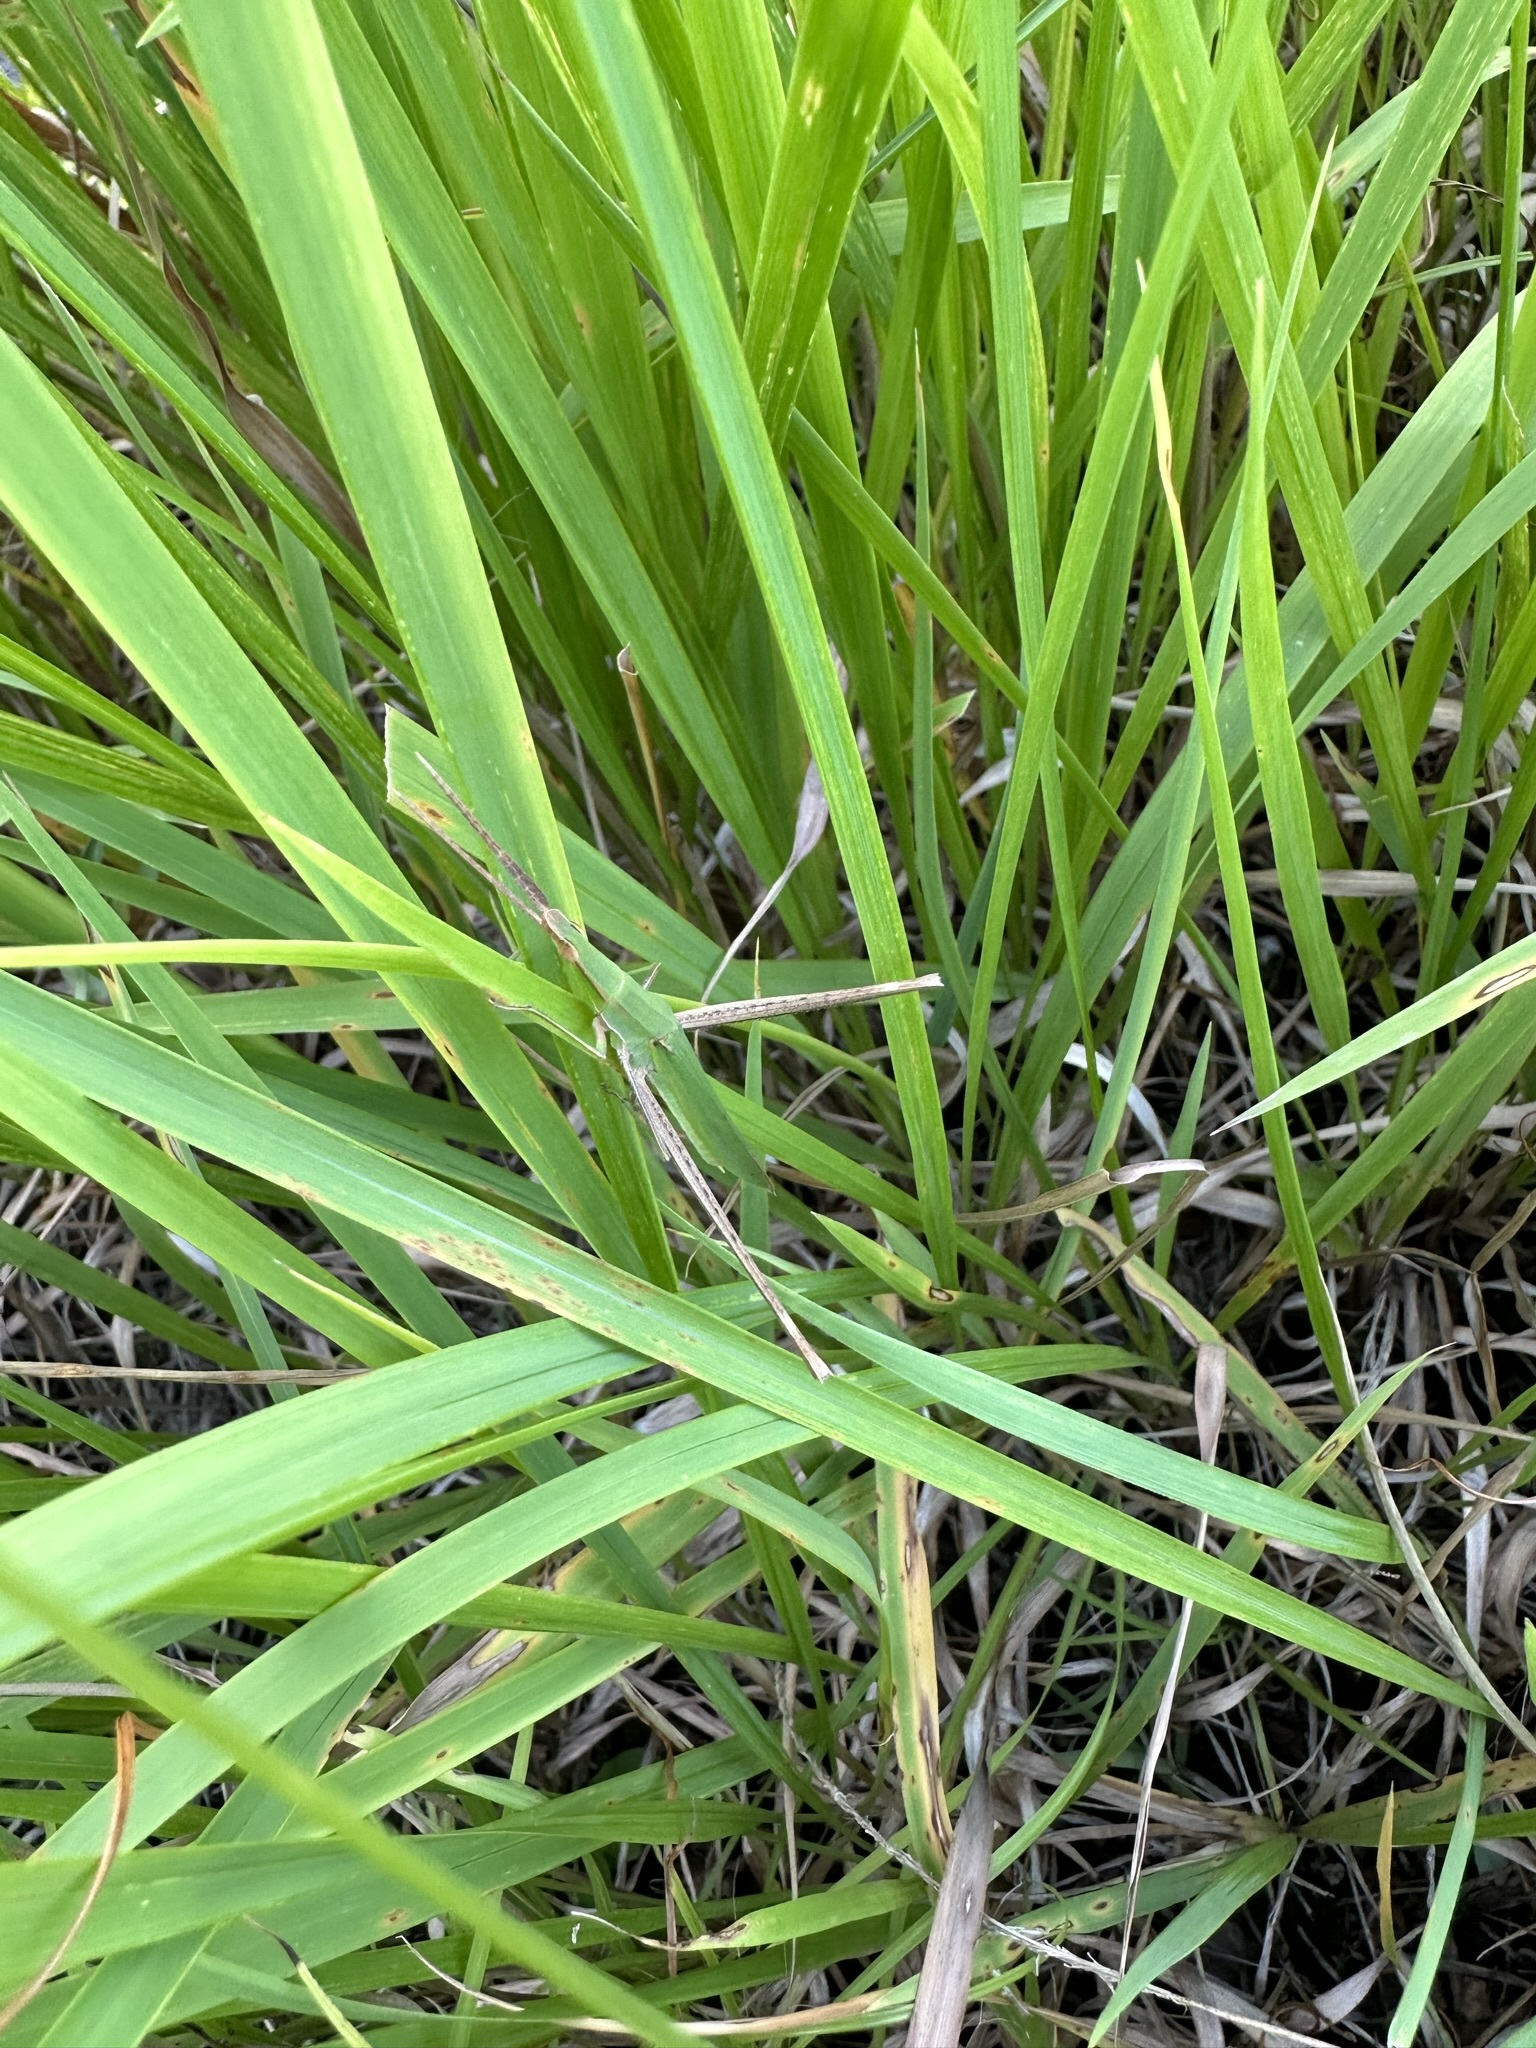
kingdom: Animalia
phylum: Arthropoda
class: Insecta
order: Orthoptera
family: Acrididae
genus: Acrida
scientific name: Acrida cinerea
